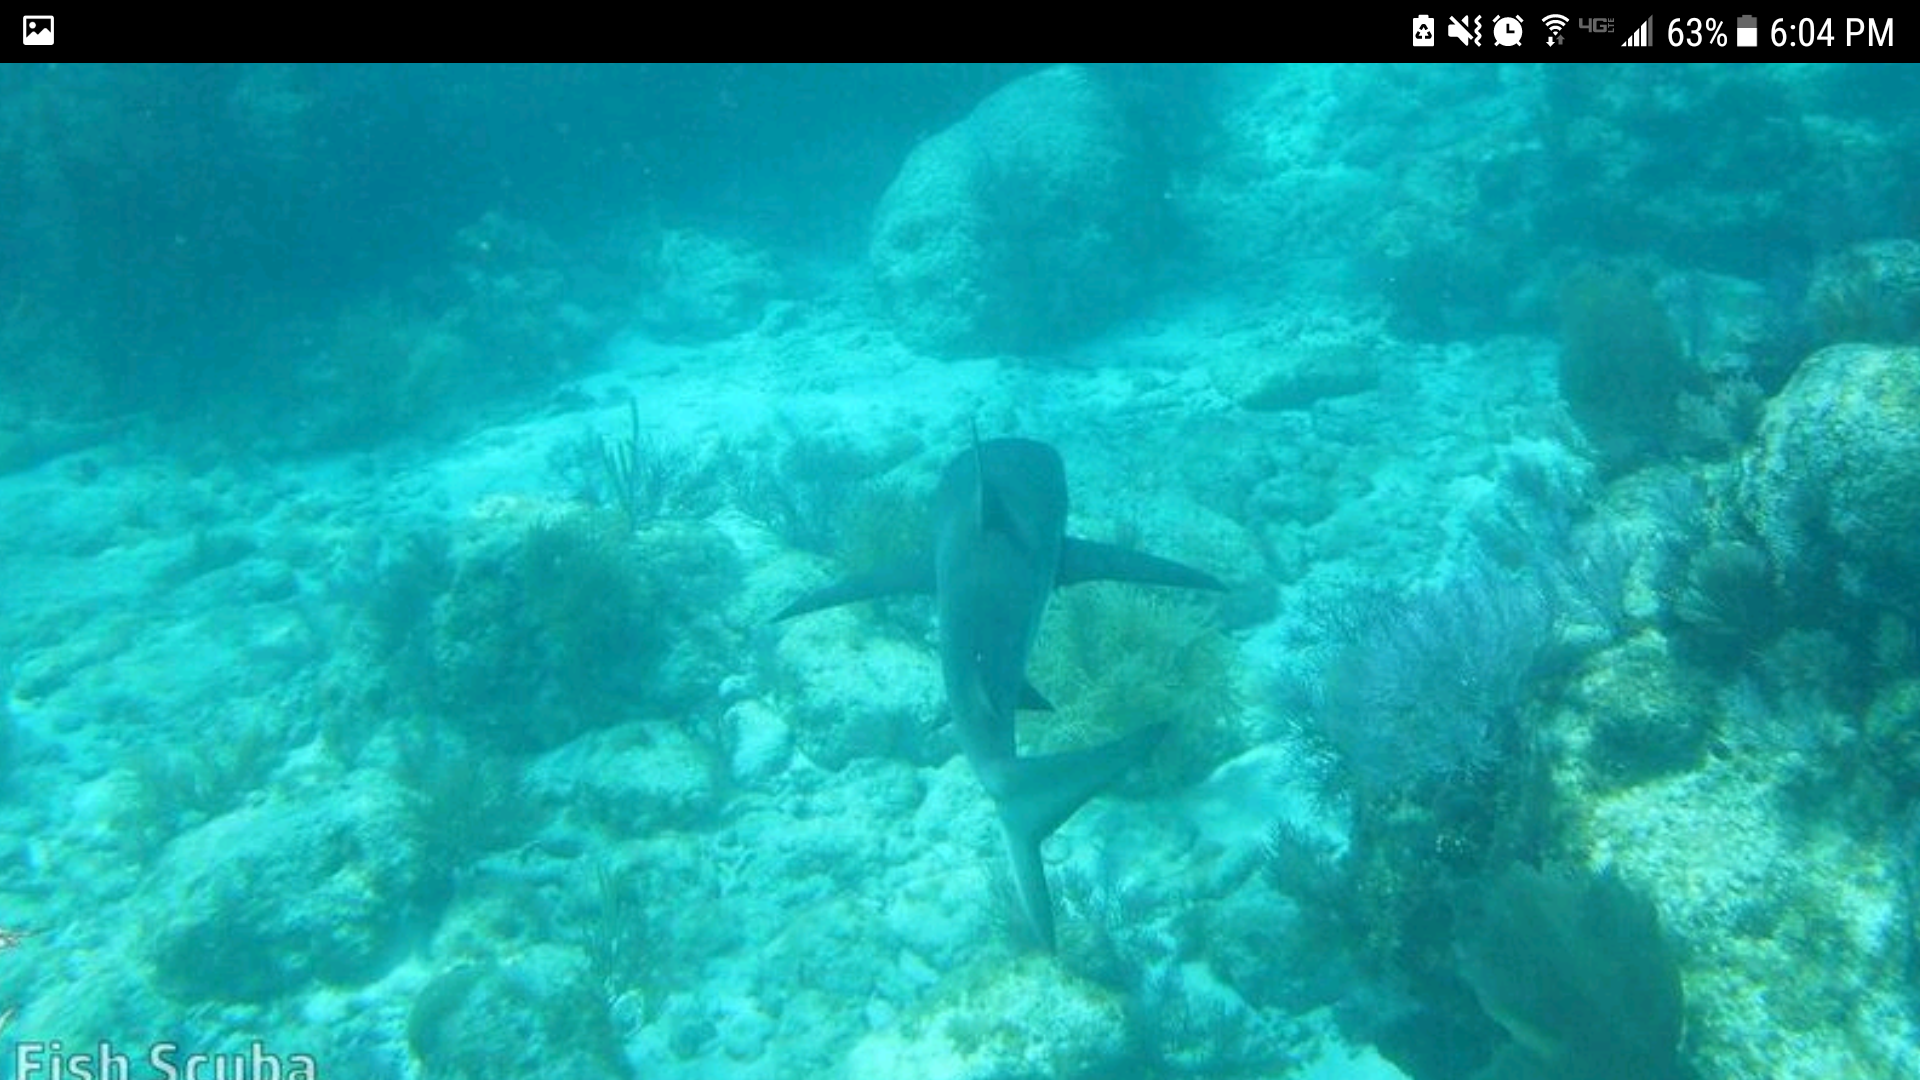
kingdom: Animalia
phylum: Chordata
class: Elasmobranchii
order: Carcharhiniformes
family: Carcharhinidae
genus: Carcharhinus
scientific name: Carcharhinus
